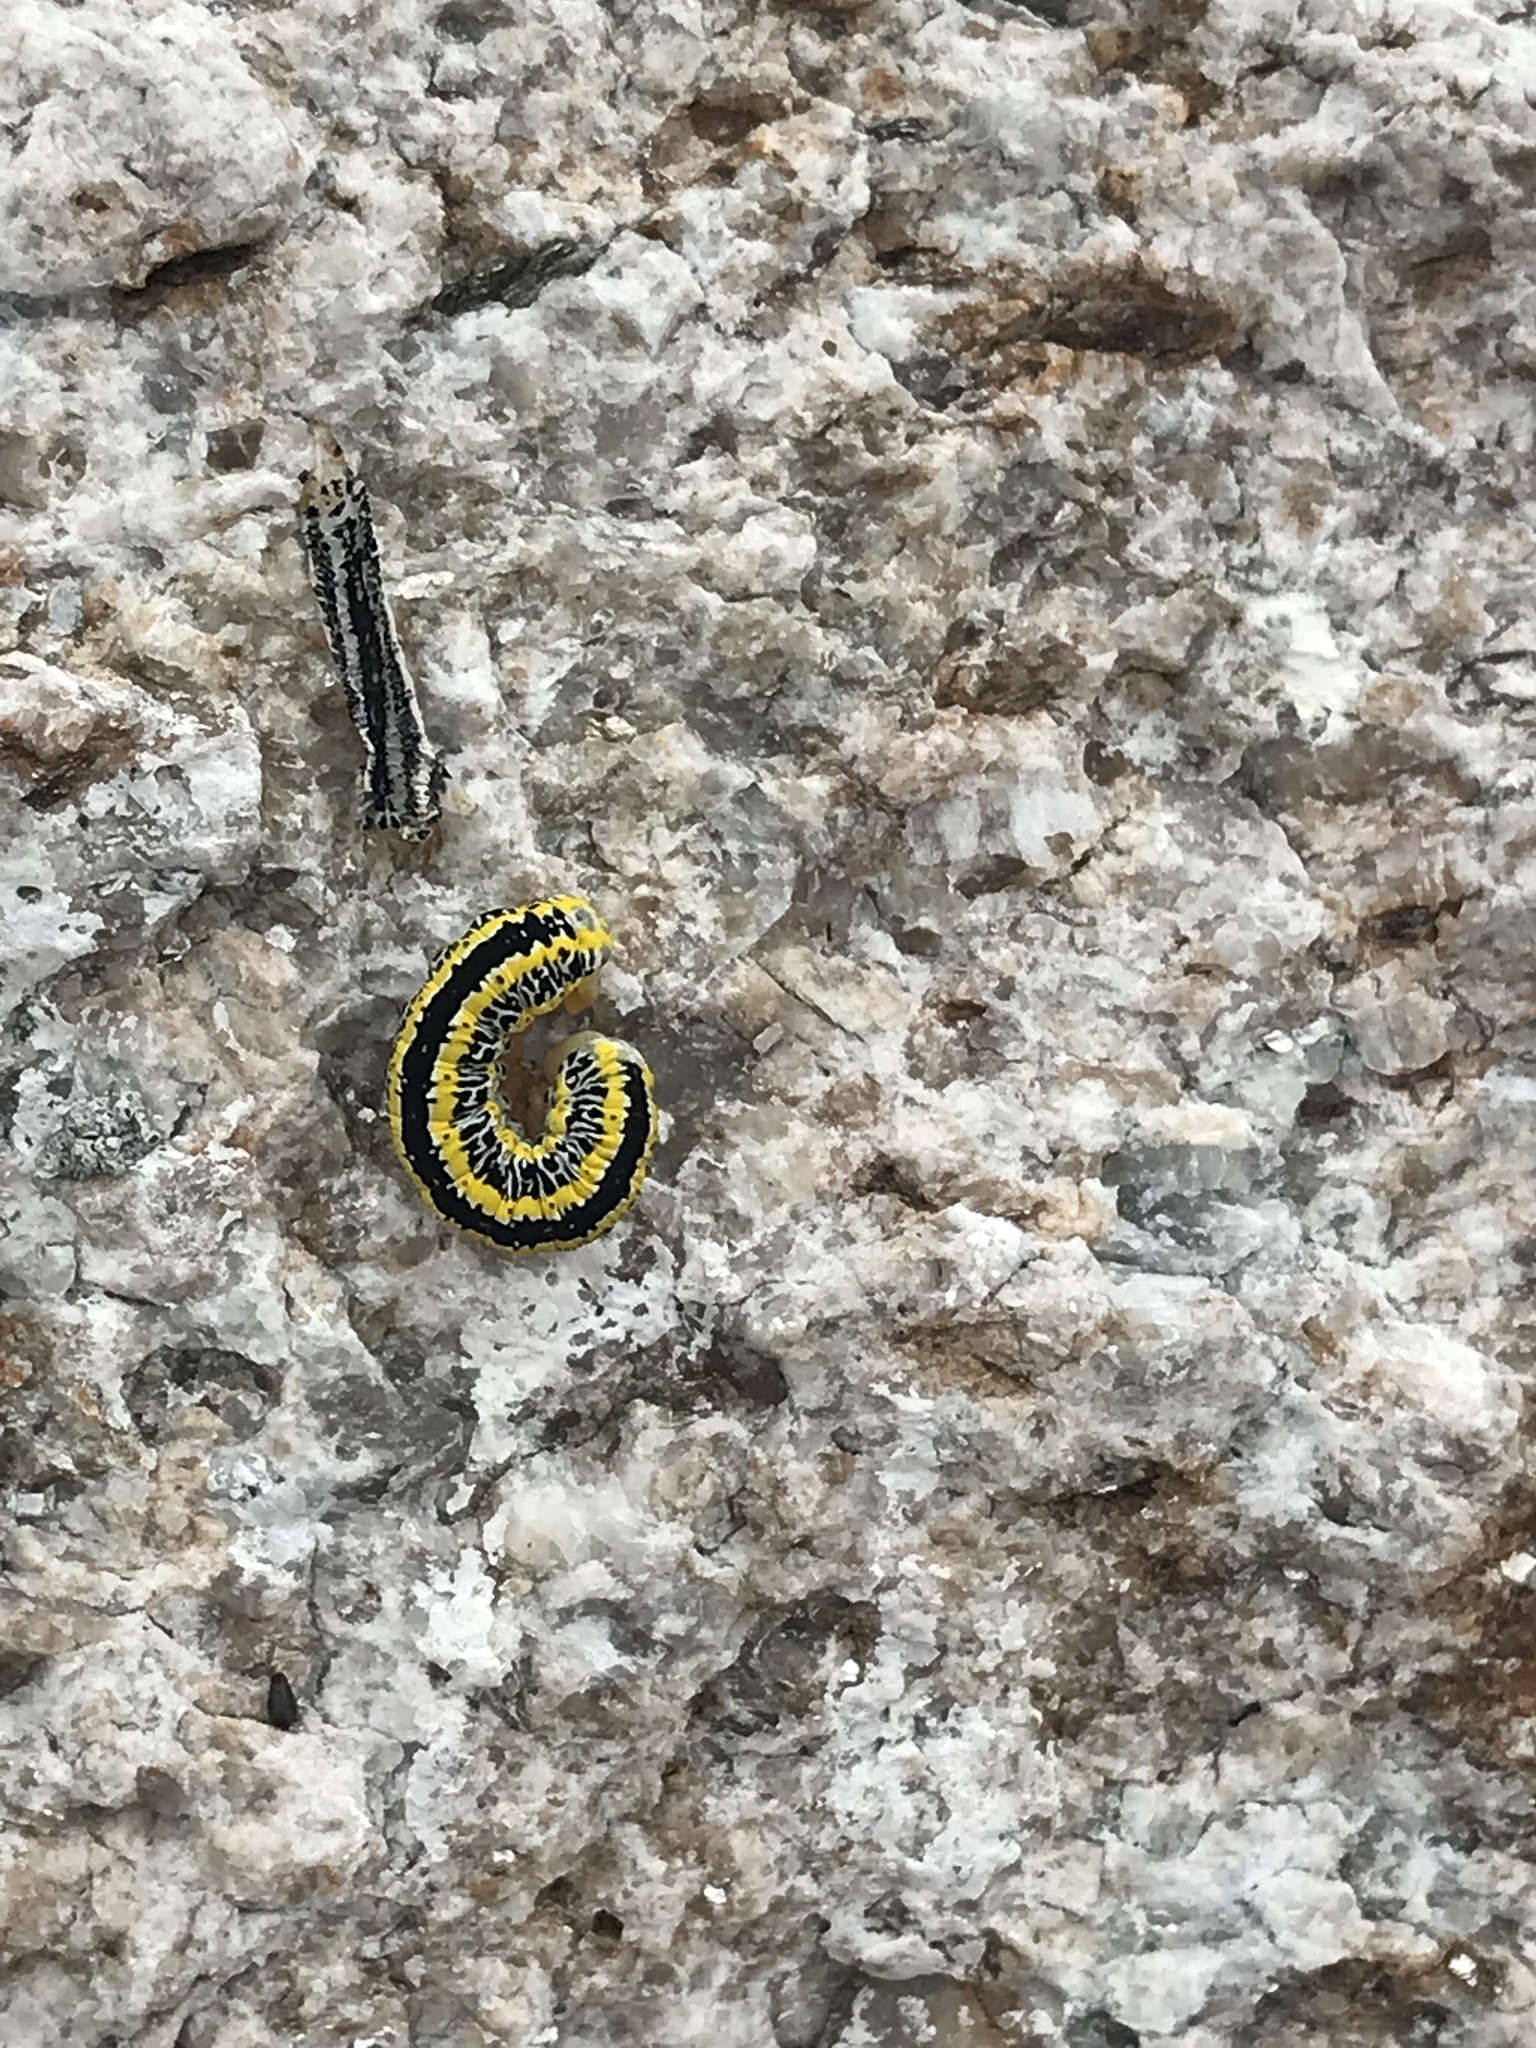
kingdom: Animalia
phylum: Arthropoda
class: Insecta
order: Lepidoptera
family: Noctuidae
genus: Melanchra
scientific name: Melanchra picta
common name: Zebra caterpillar
